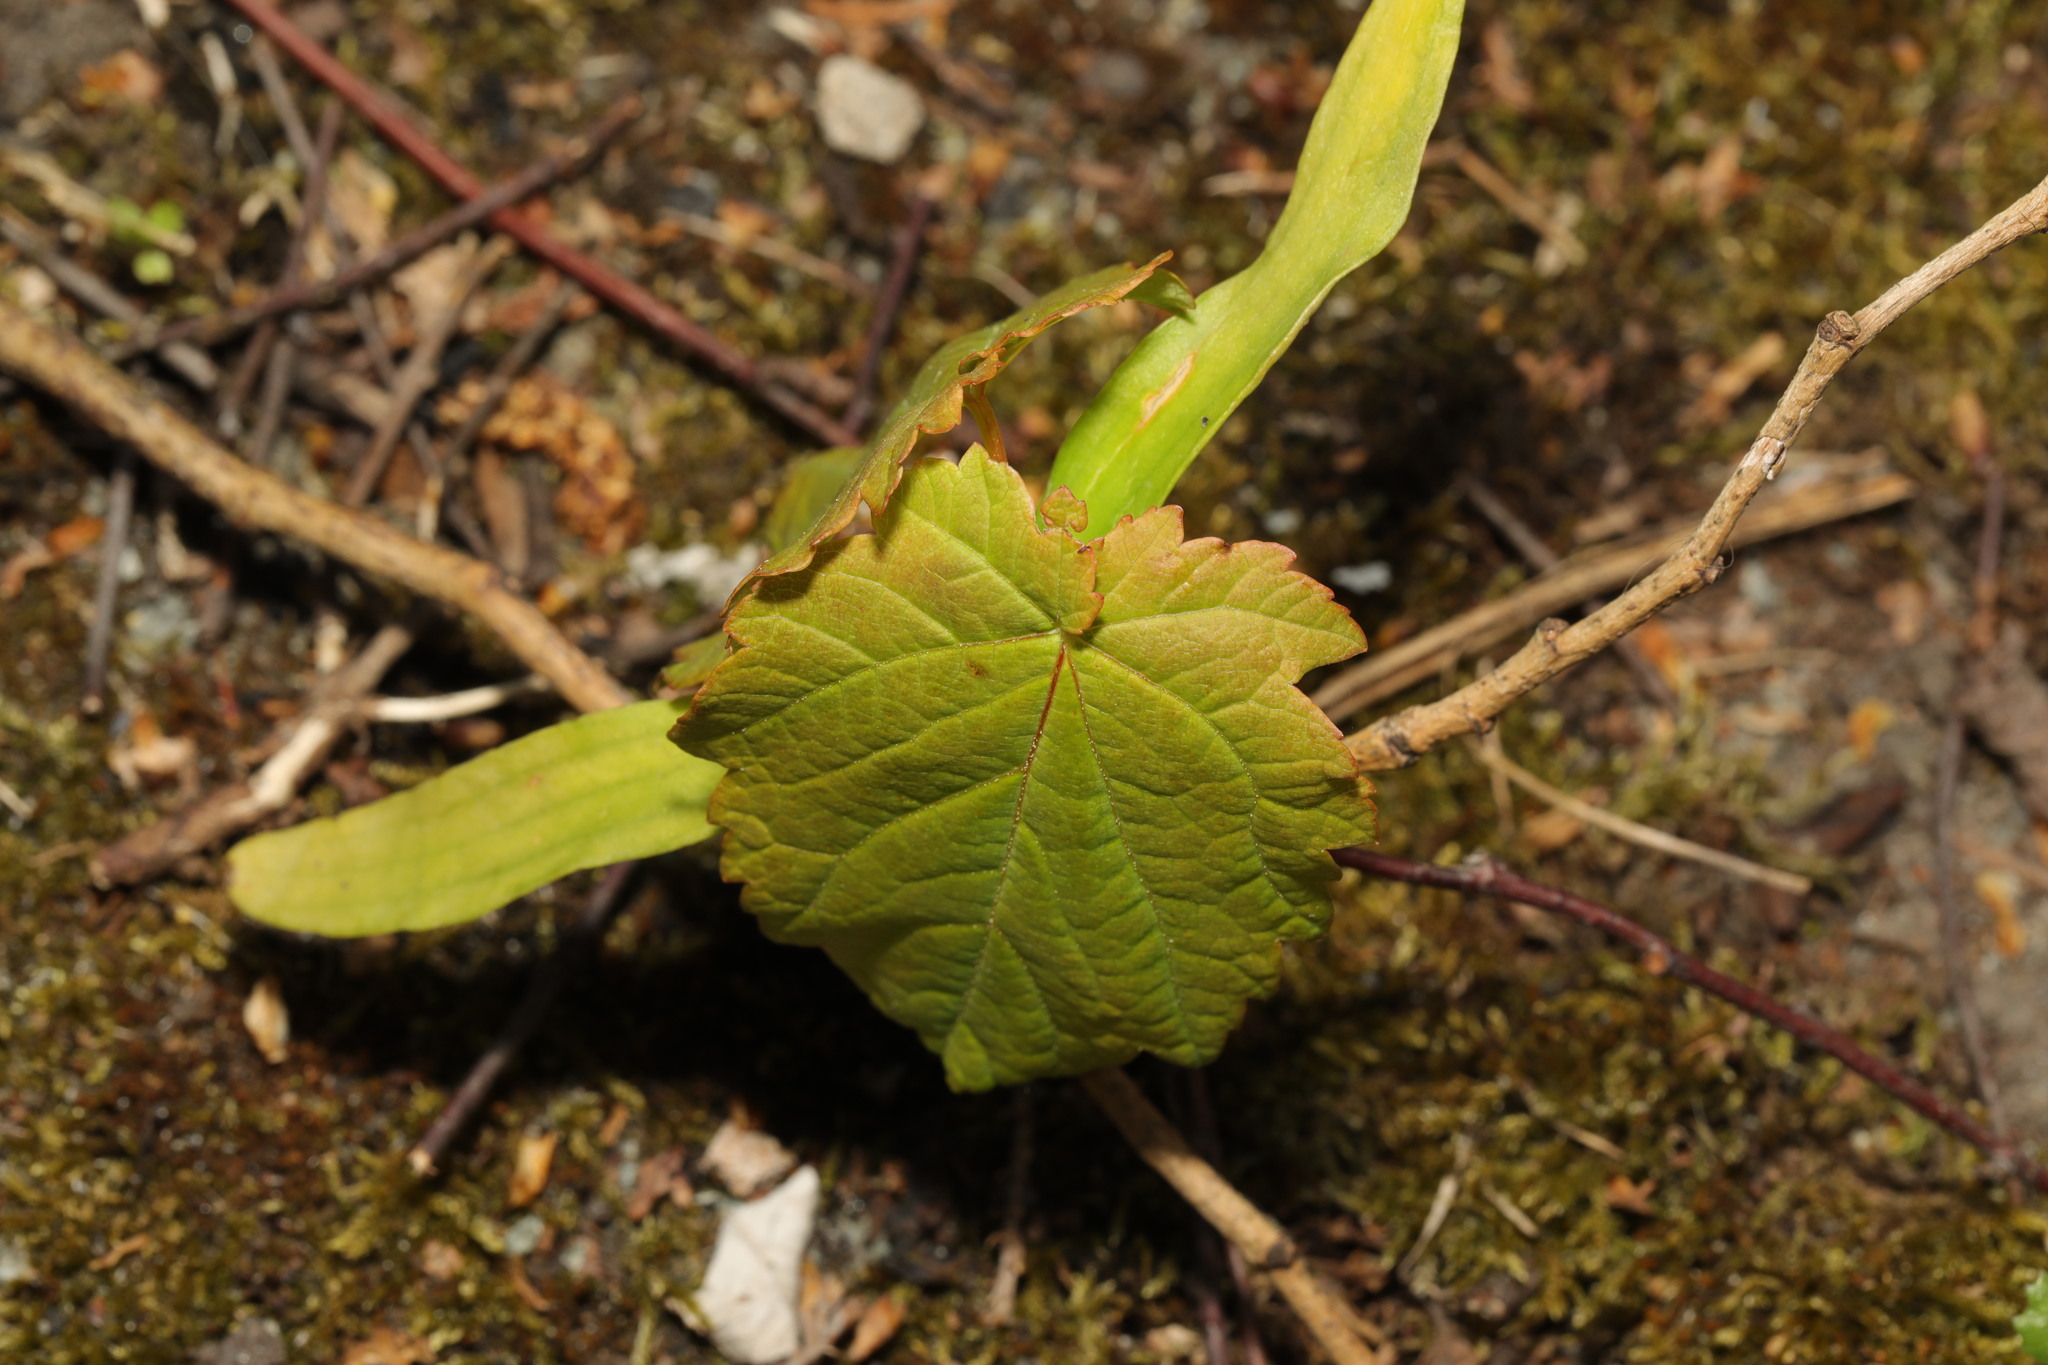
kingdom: Plantae
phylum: Tracheophyta
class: Magnoliopsida
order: Sapindales
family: Sapindaceae
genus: Acer
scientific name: Acer pseudoplatanus
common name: Sycamore
